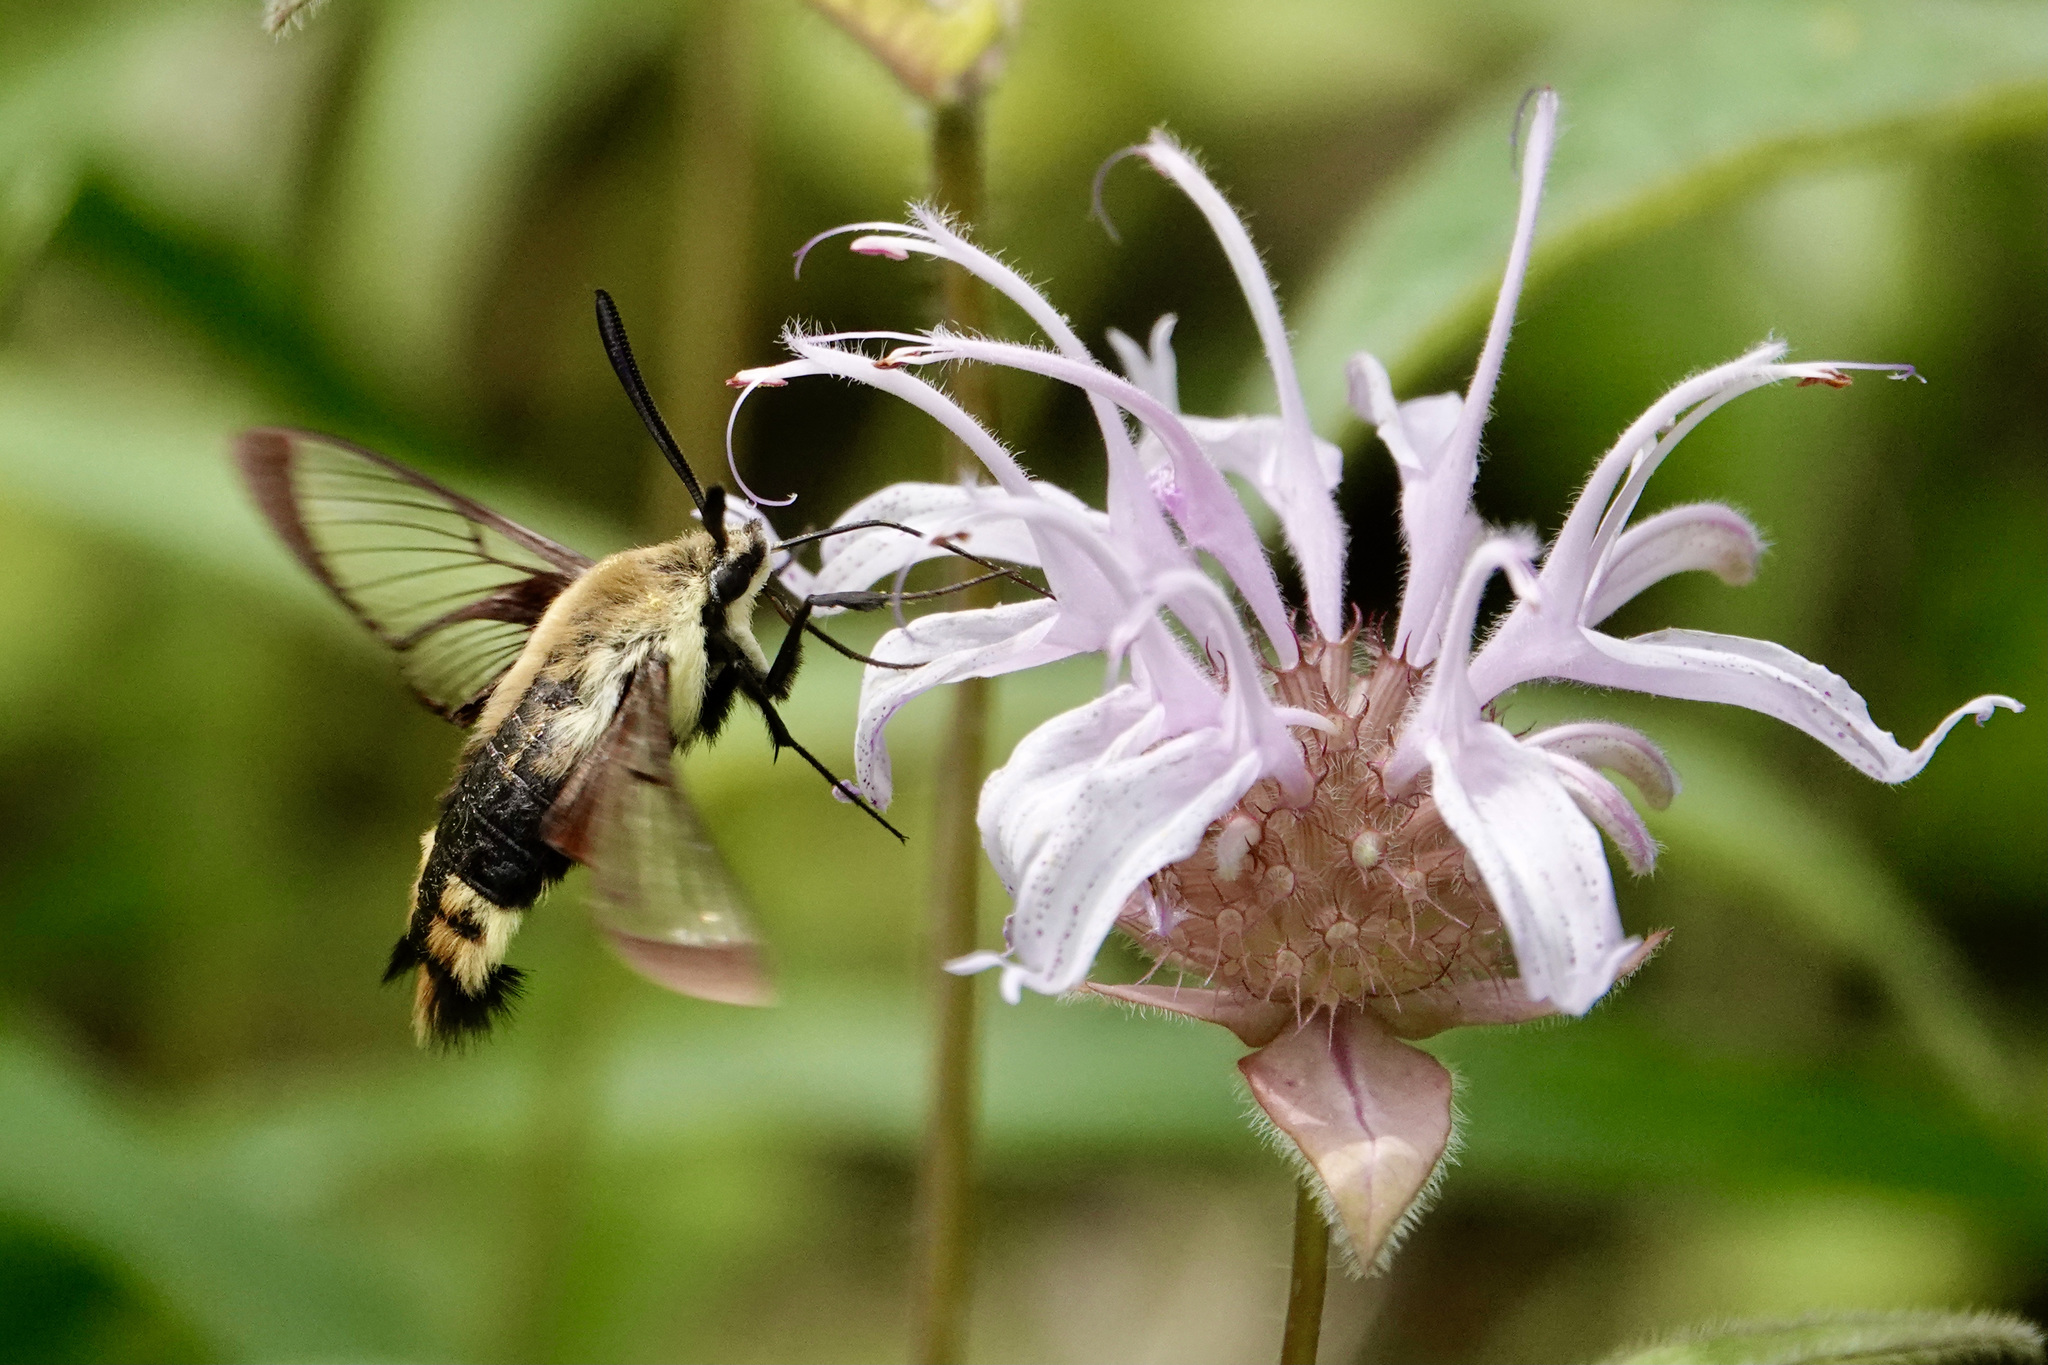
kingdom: Animalia
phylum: Arthropoda
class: Insecta
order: Lepidoptera
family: Sphingidae
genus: Hemaris
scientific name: Hemaris diffinis
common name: Bumblebee moth
